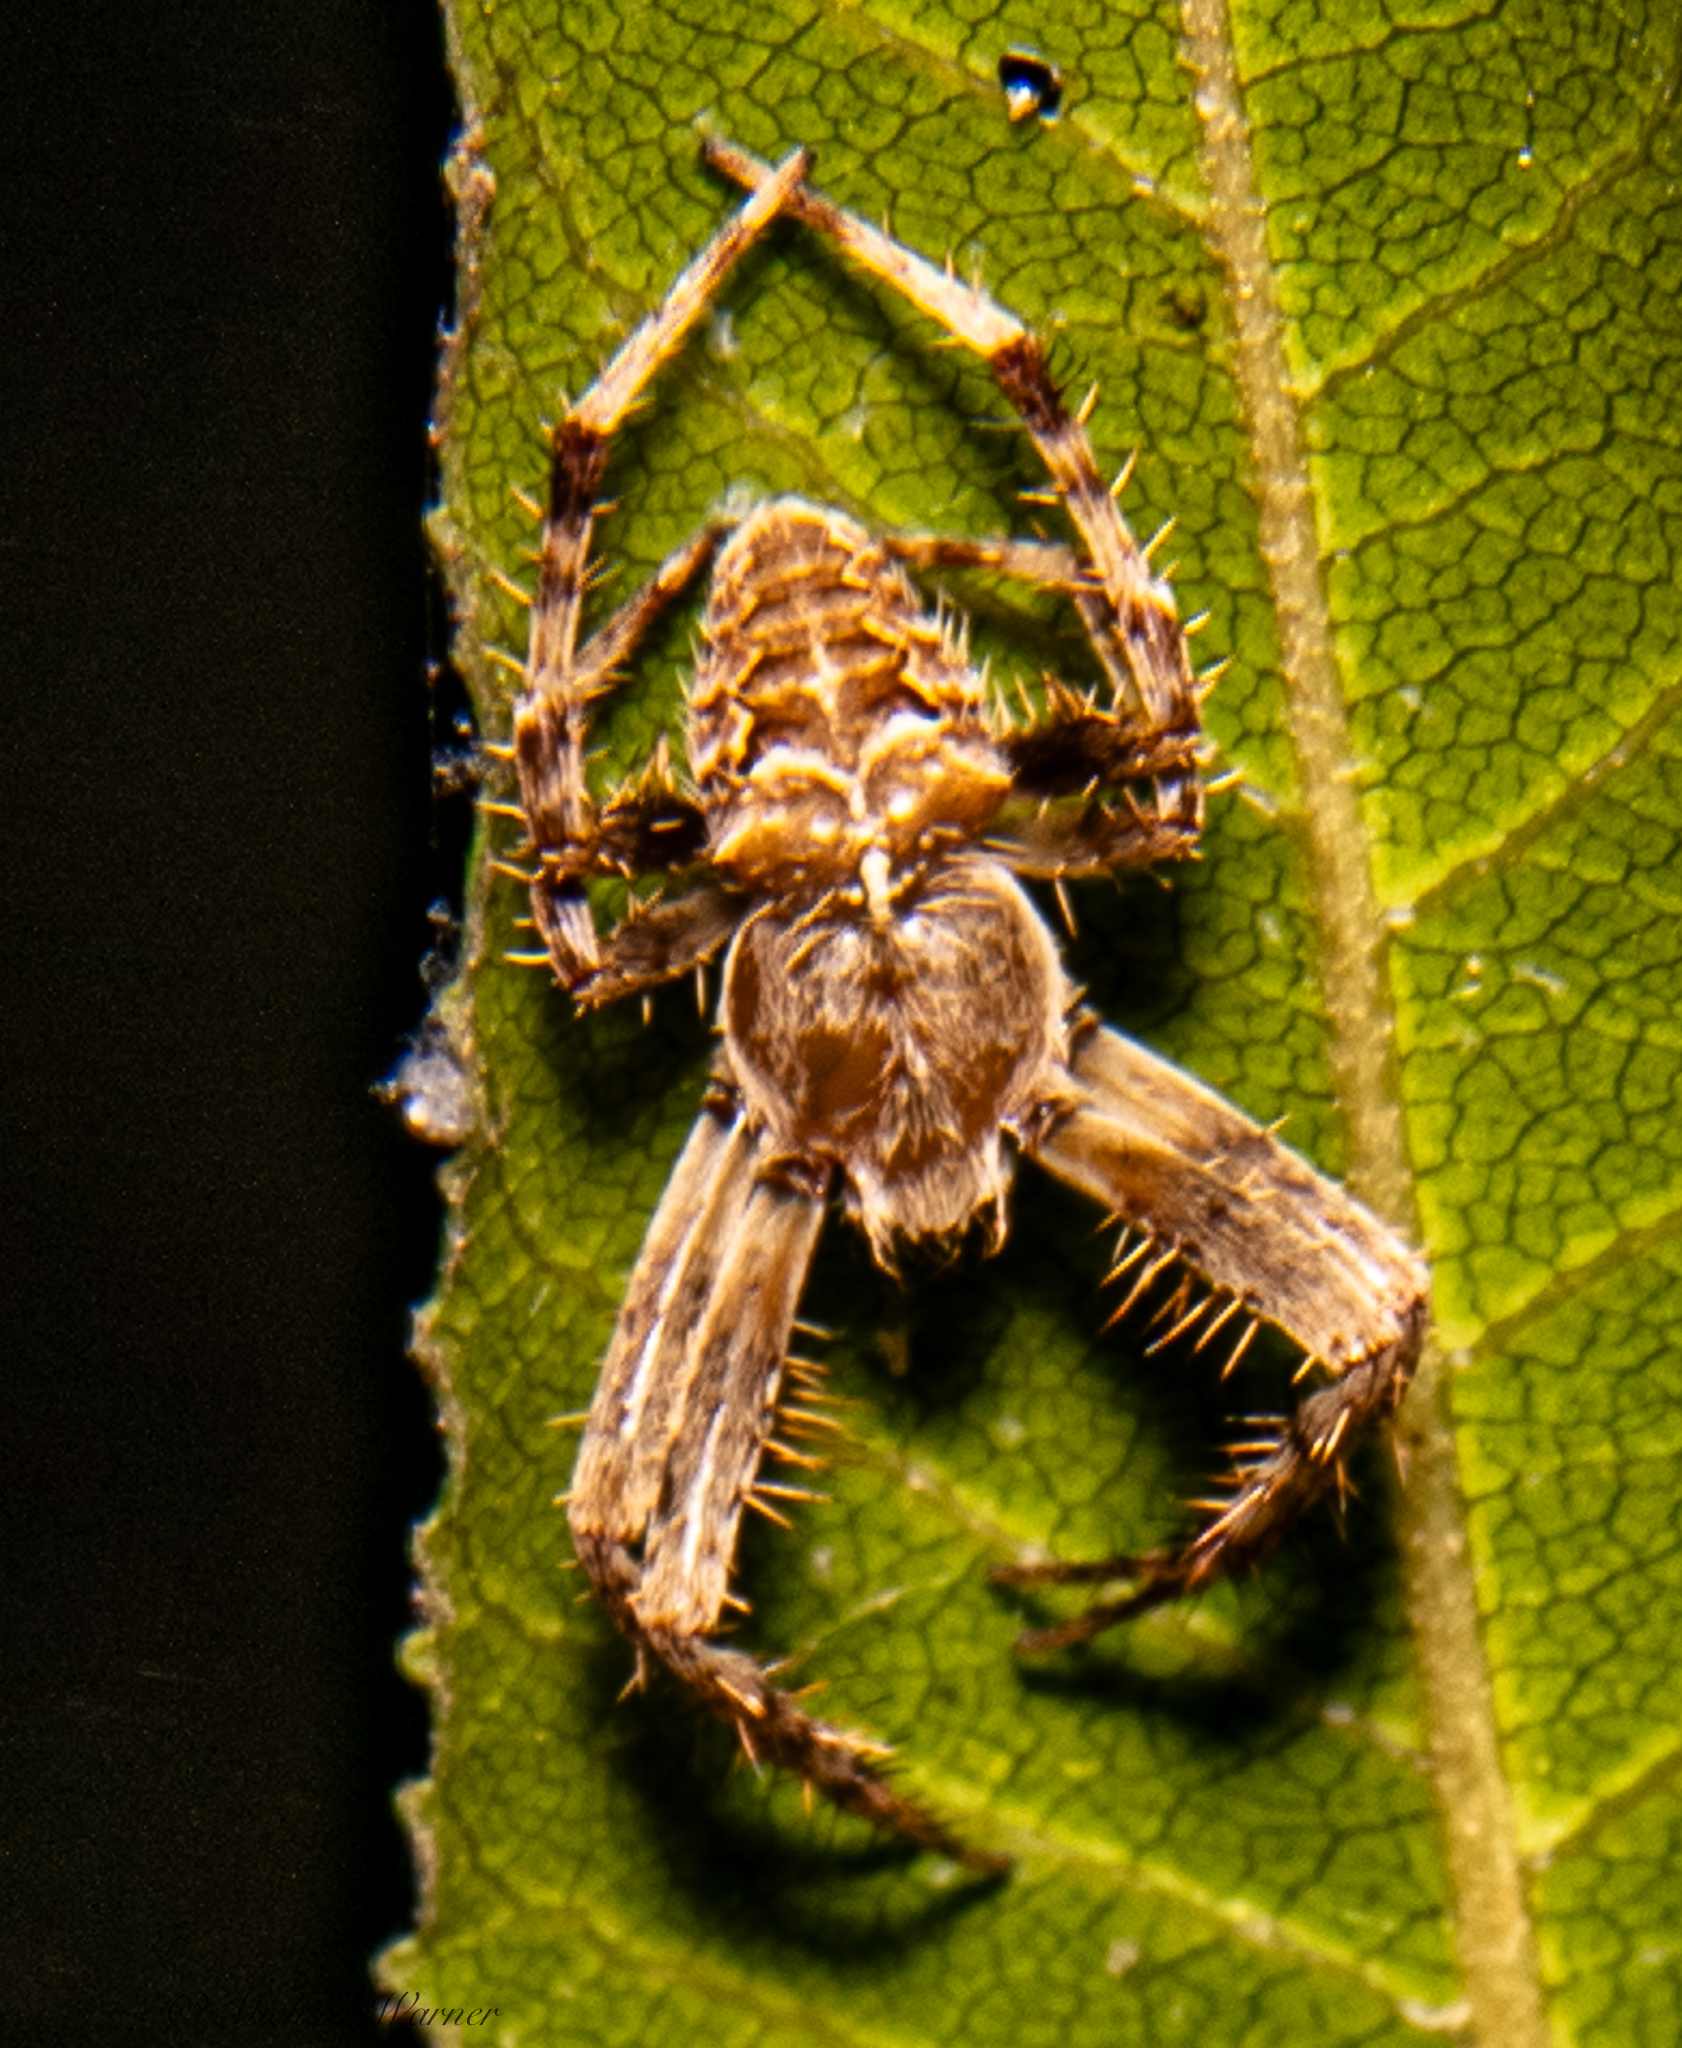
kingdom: Animalia
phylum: Arthropoda
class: Arachnida
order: Araneae
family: Araneidae
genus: Araneus
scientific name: Araneus gemmoides
